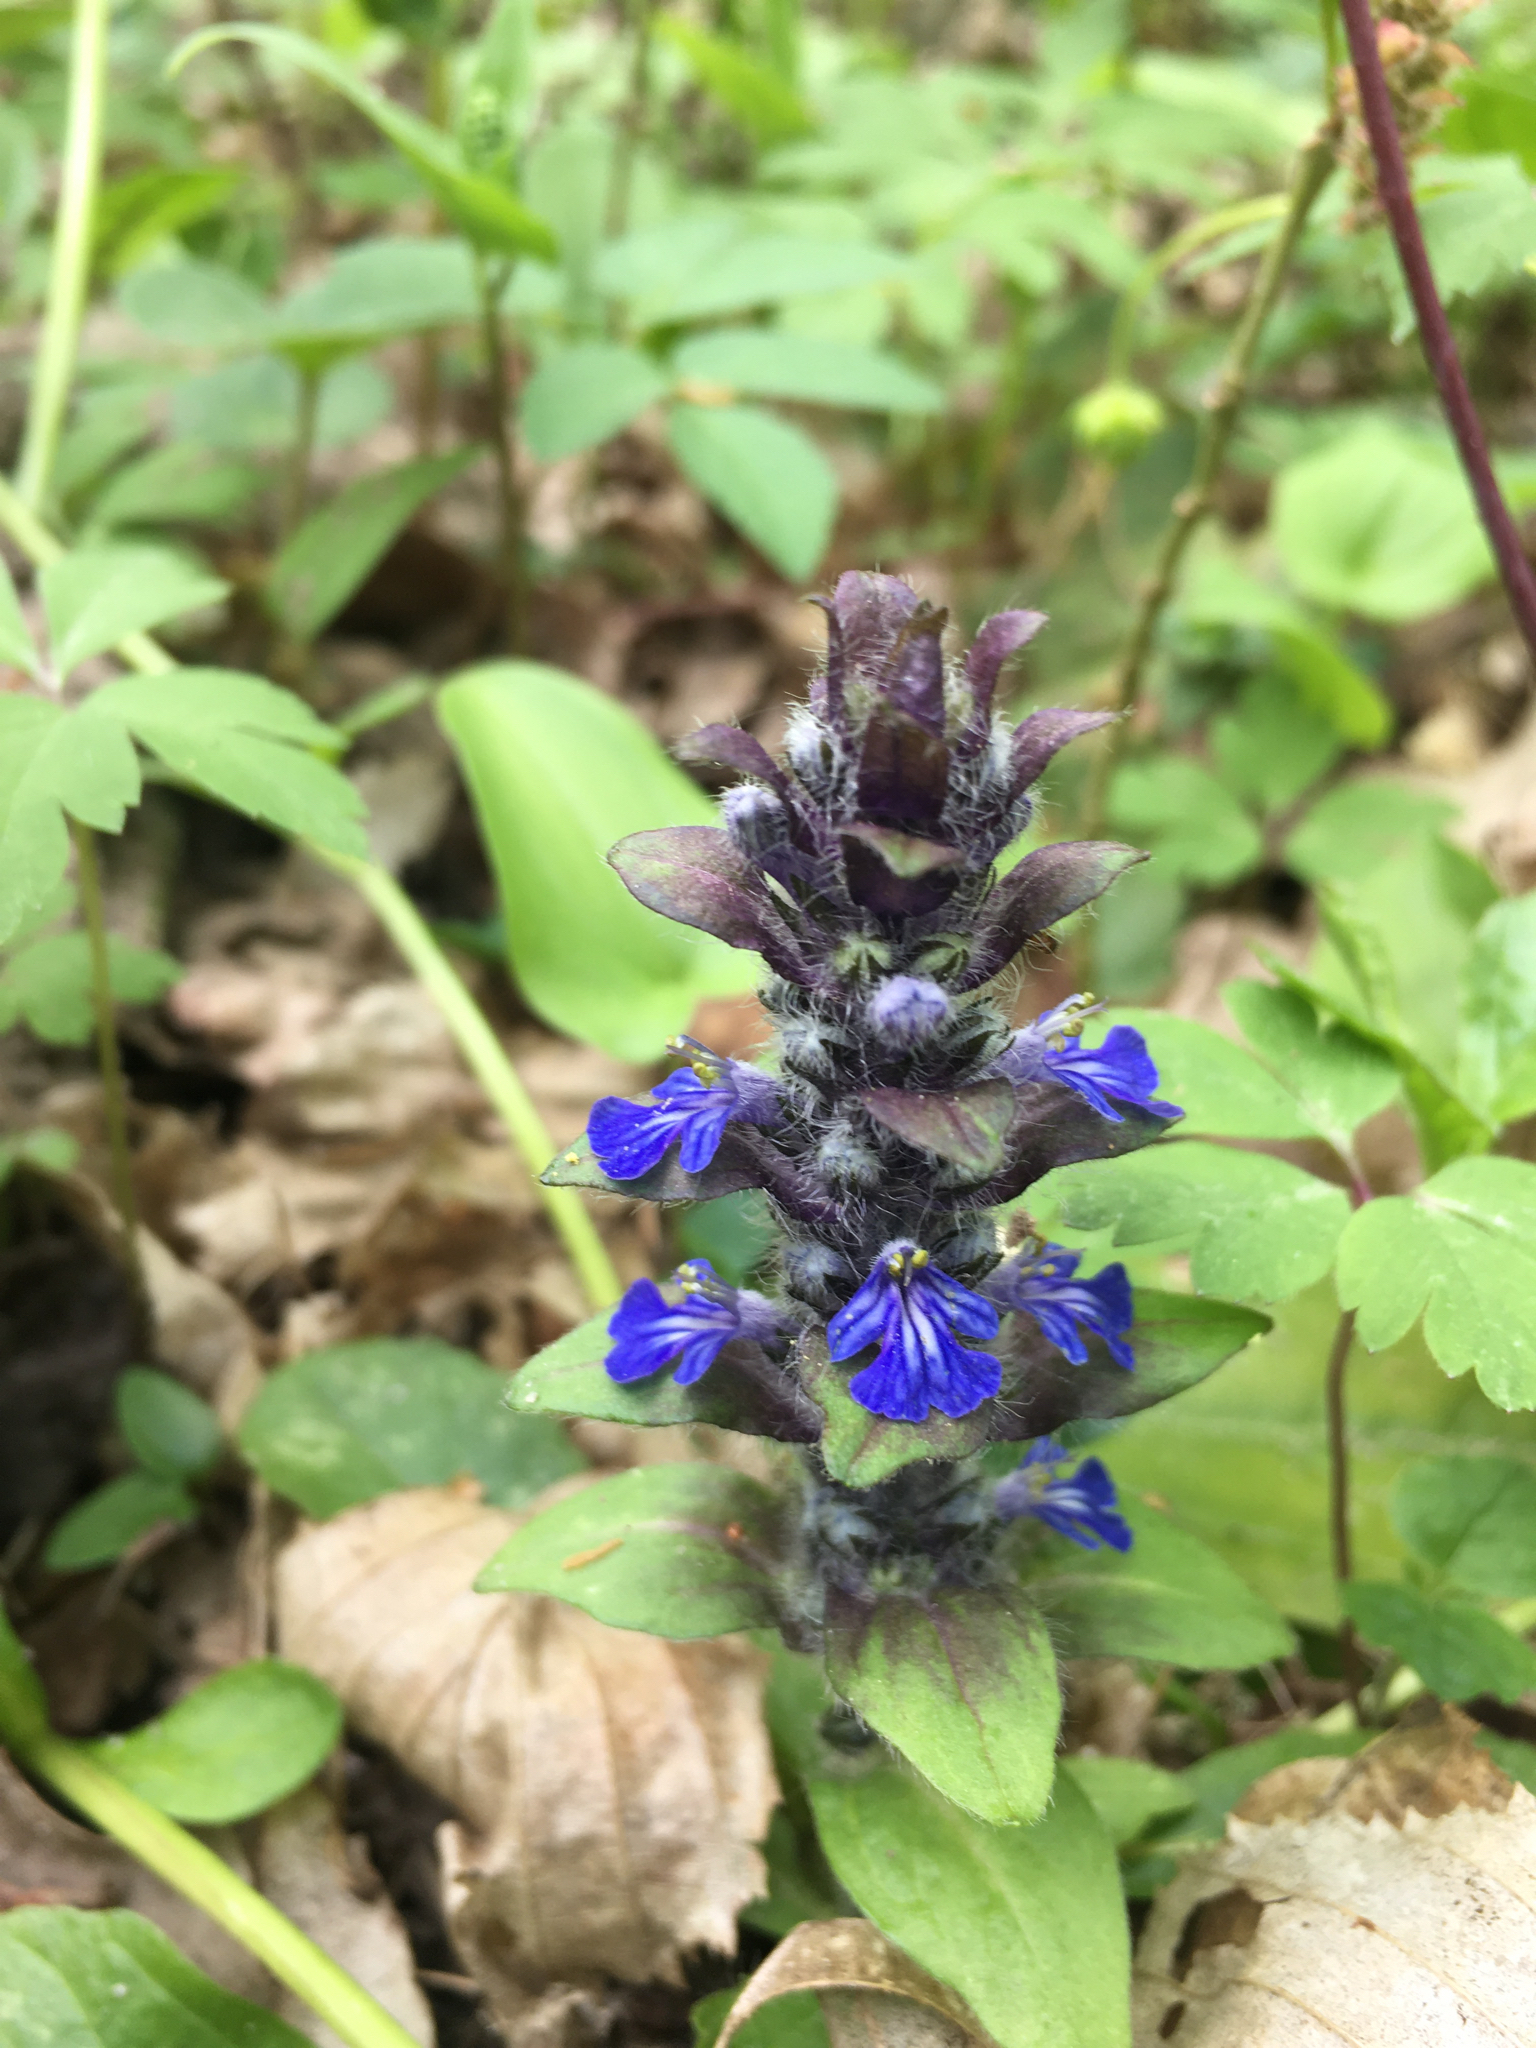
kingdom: Plantae
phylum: Tracheophyta
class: Magnoliopsida
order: Lamiales
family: Lamiaceae
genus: Ajuga
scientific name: Ajuga reptans
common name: Bugle
